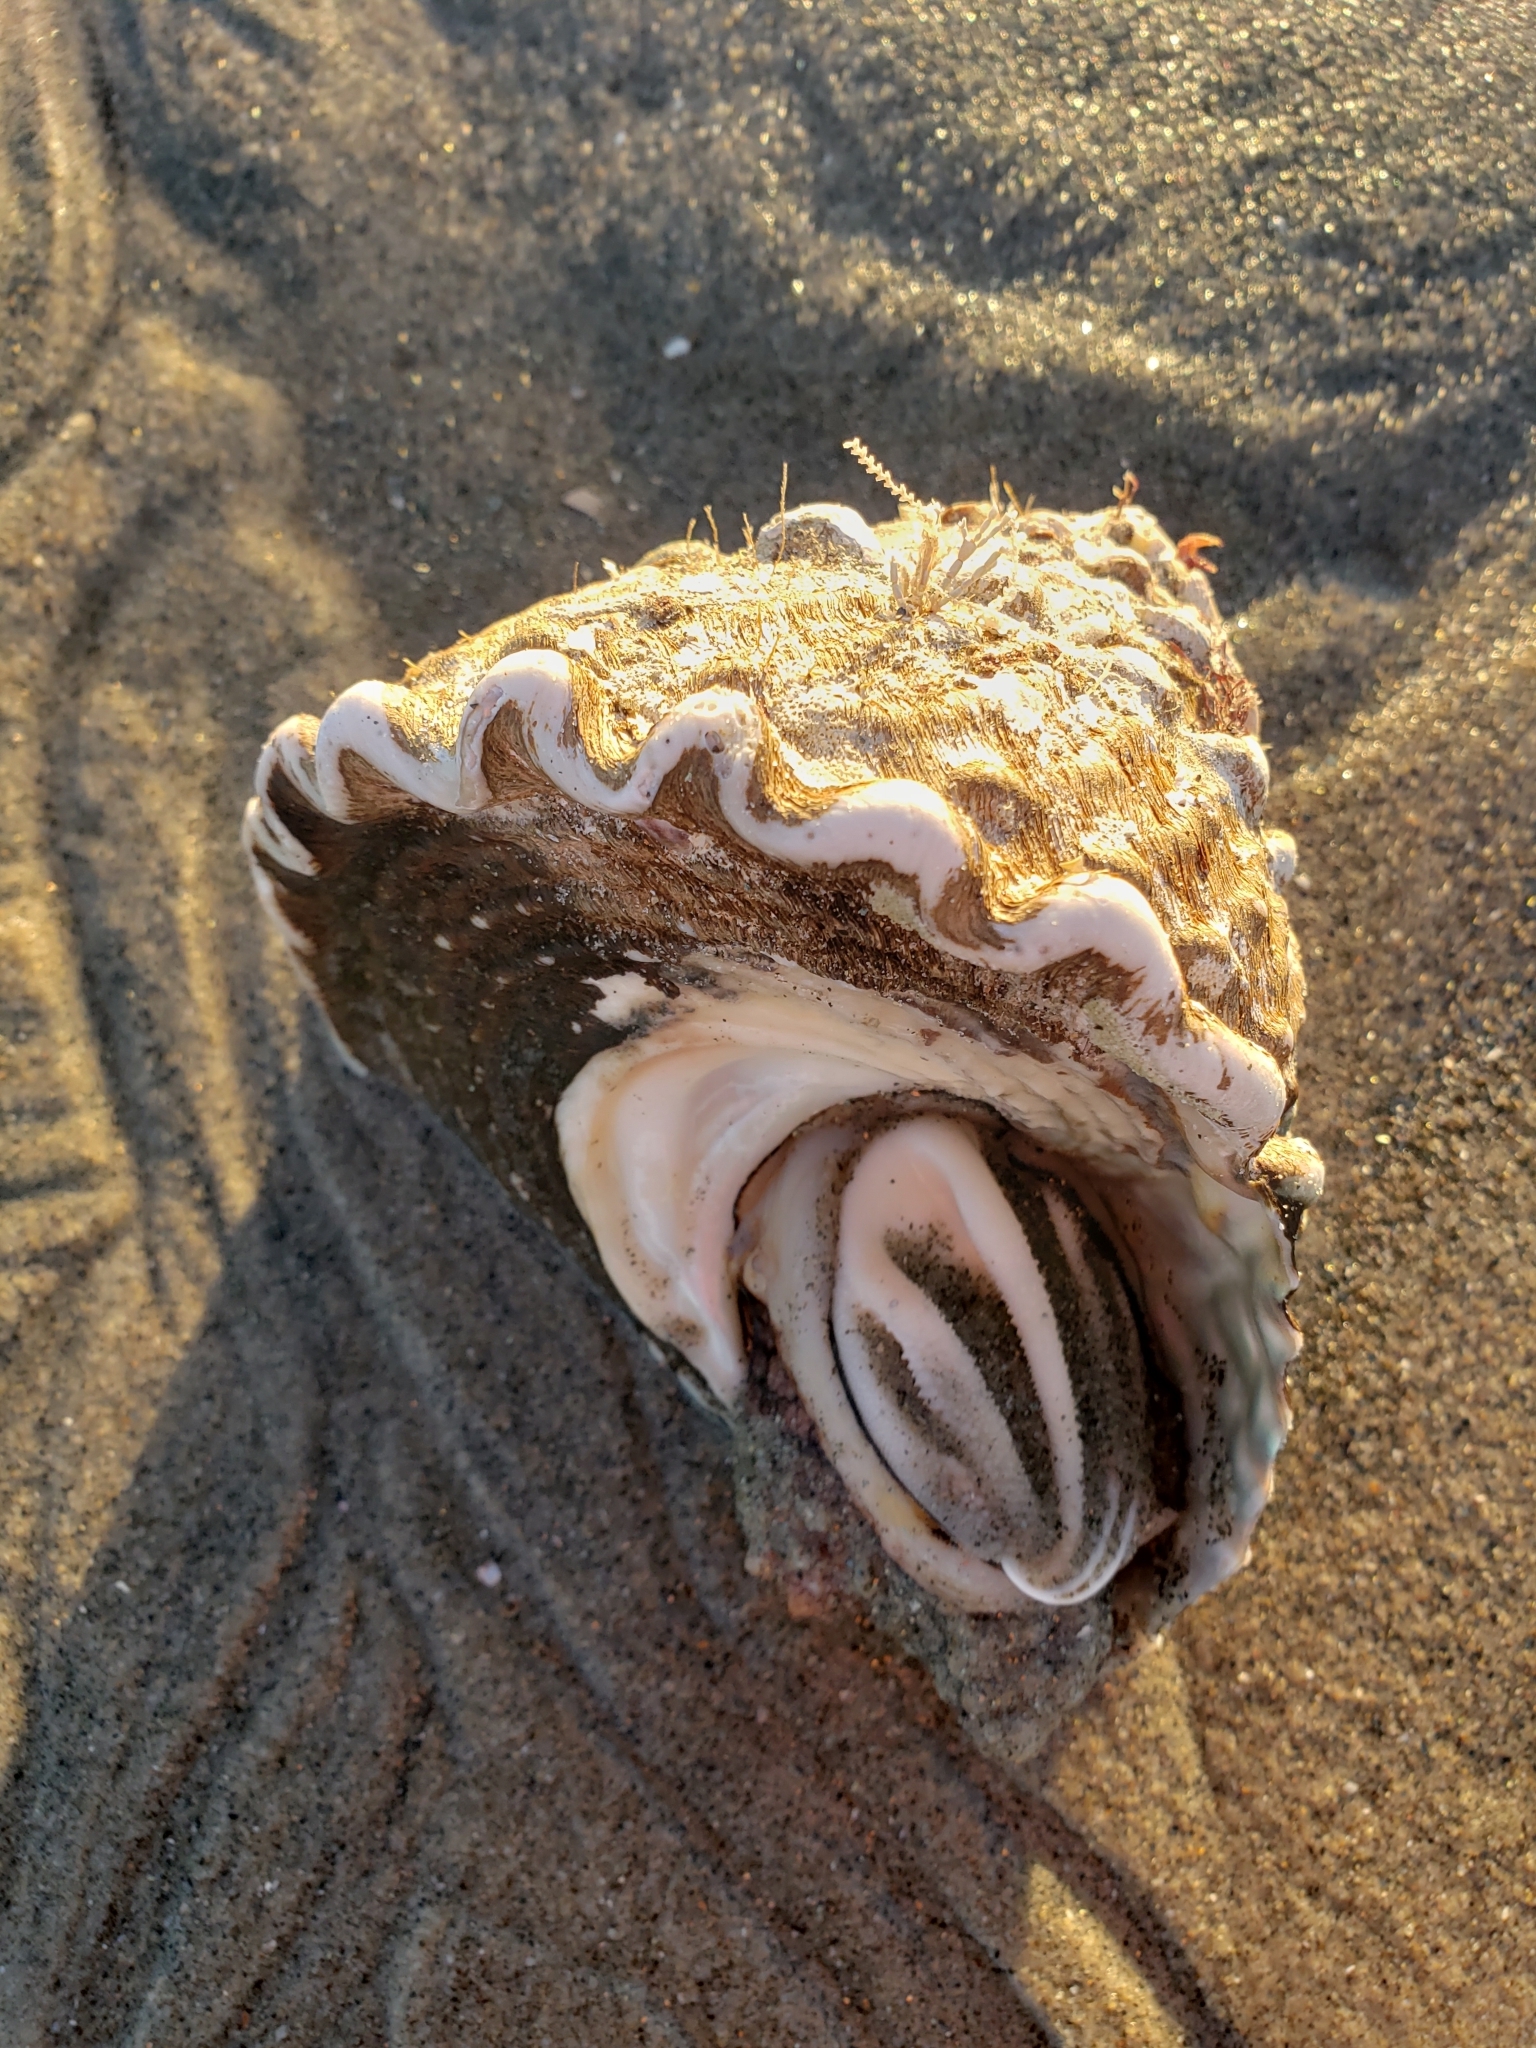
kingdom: Animalia
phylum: Mollusca
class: Gastropoda
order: Trochida
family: Turbinidae
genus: Megastraea
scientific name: Megastraea undosa
